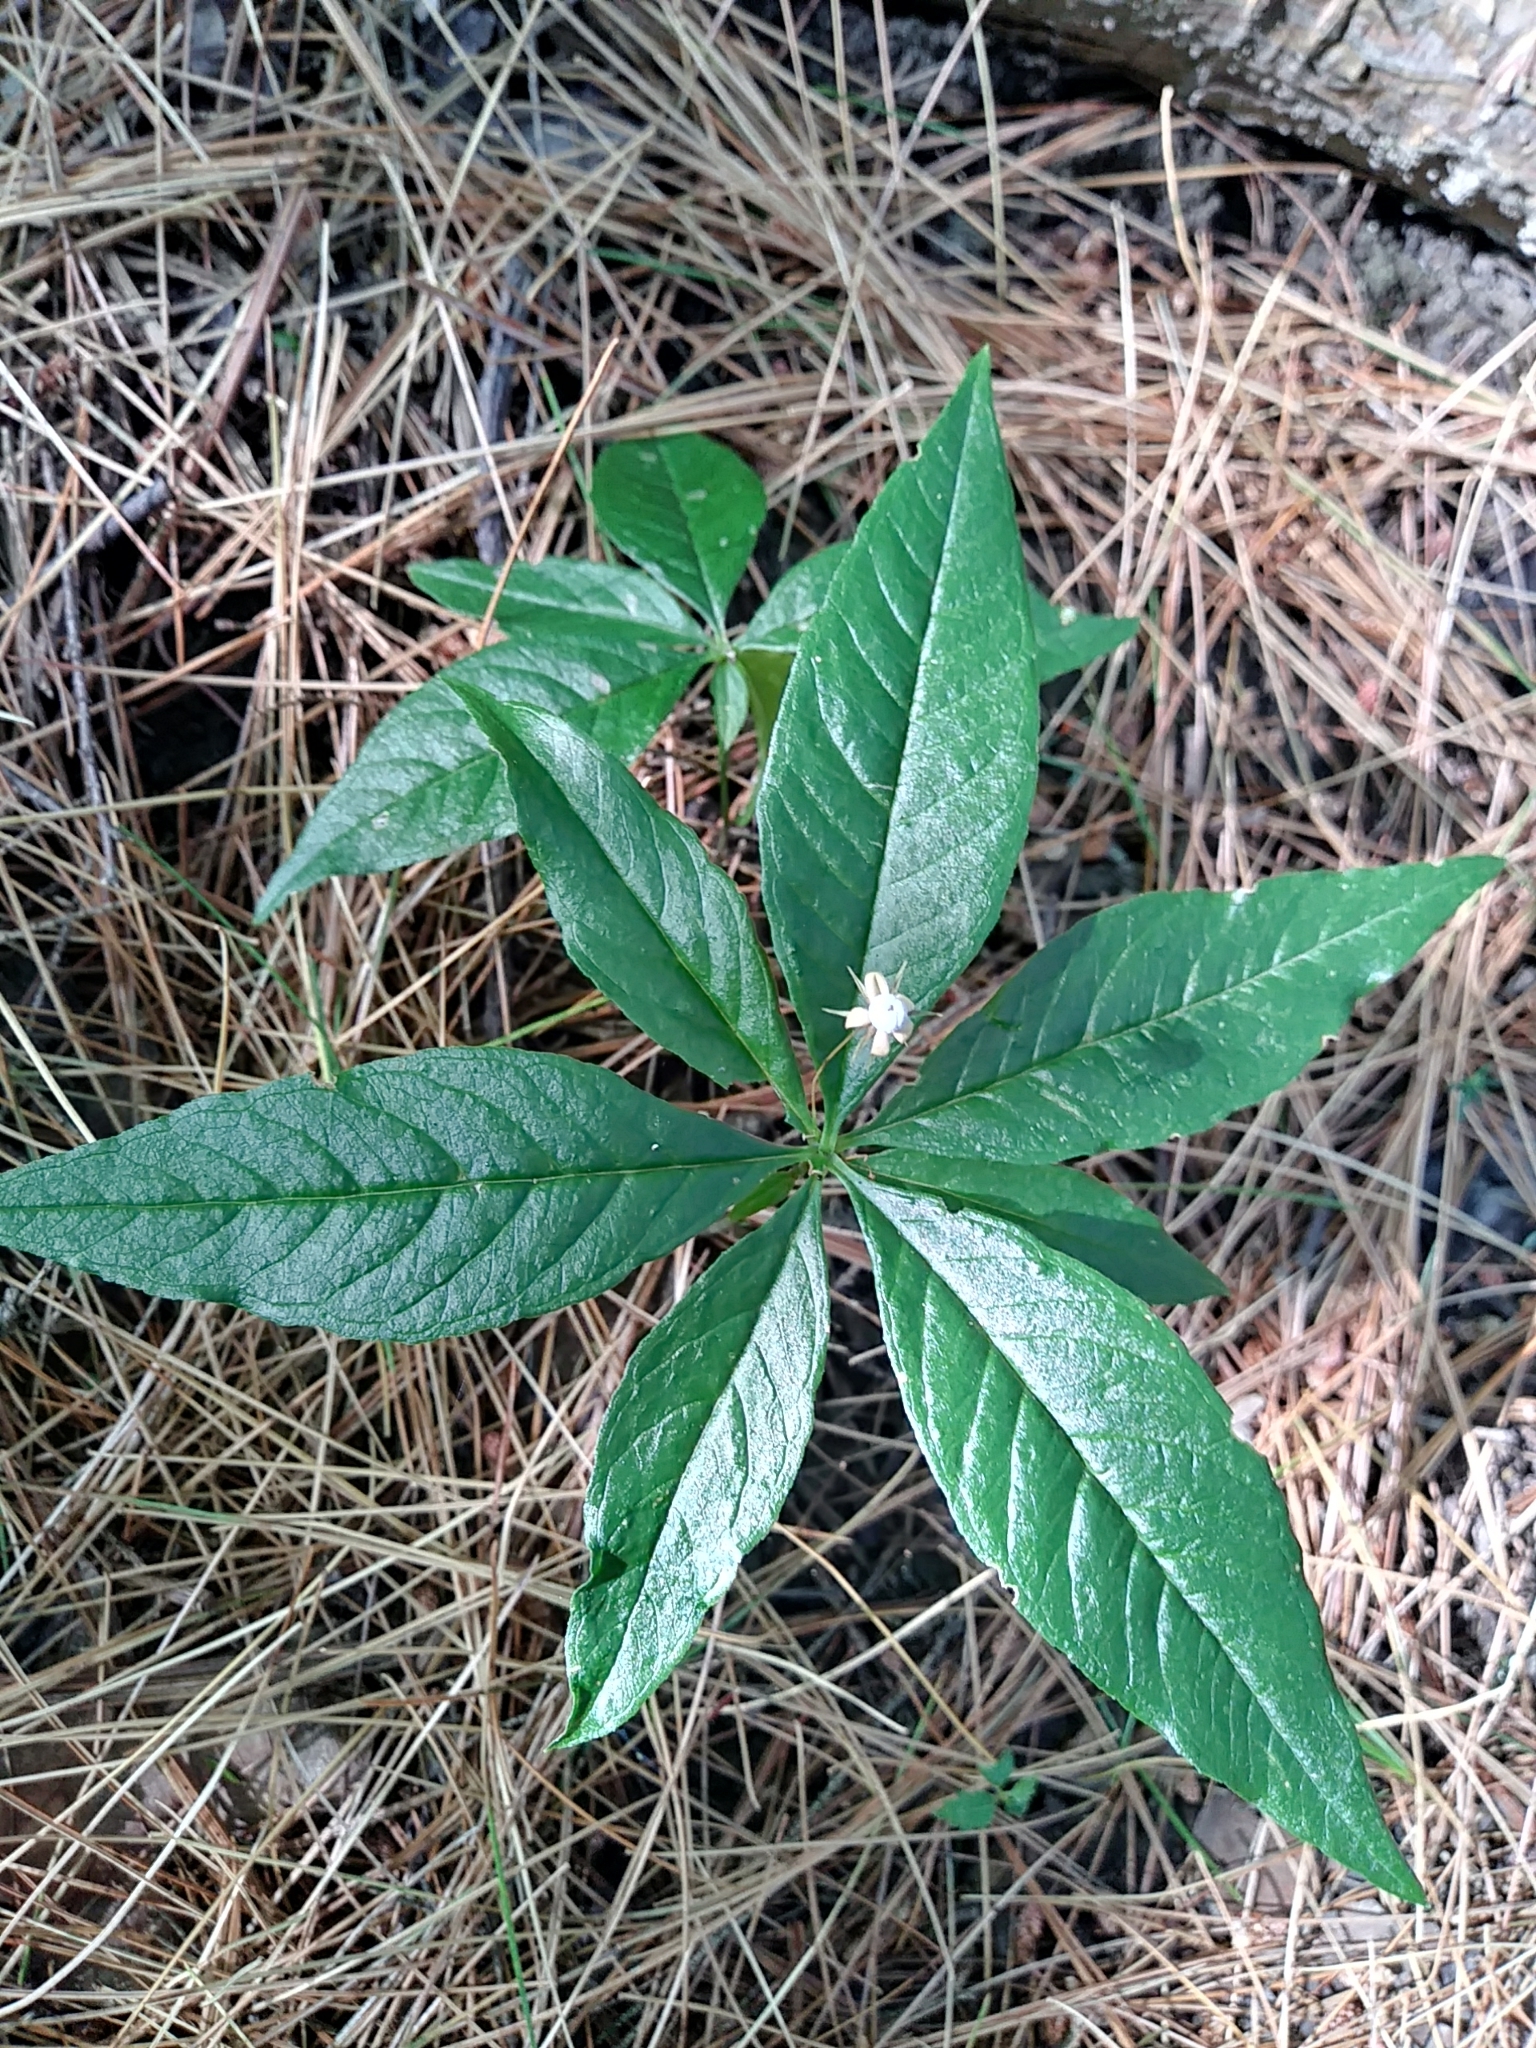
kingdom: Plantae
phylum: Tracheophyta
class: Magnoliopsida
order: Ericales
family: Primulaceae
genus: Lysimachia
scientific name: Lysimachia borealis
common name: American starflower
